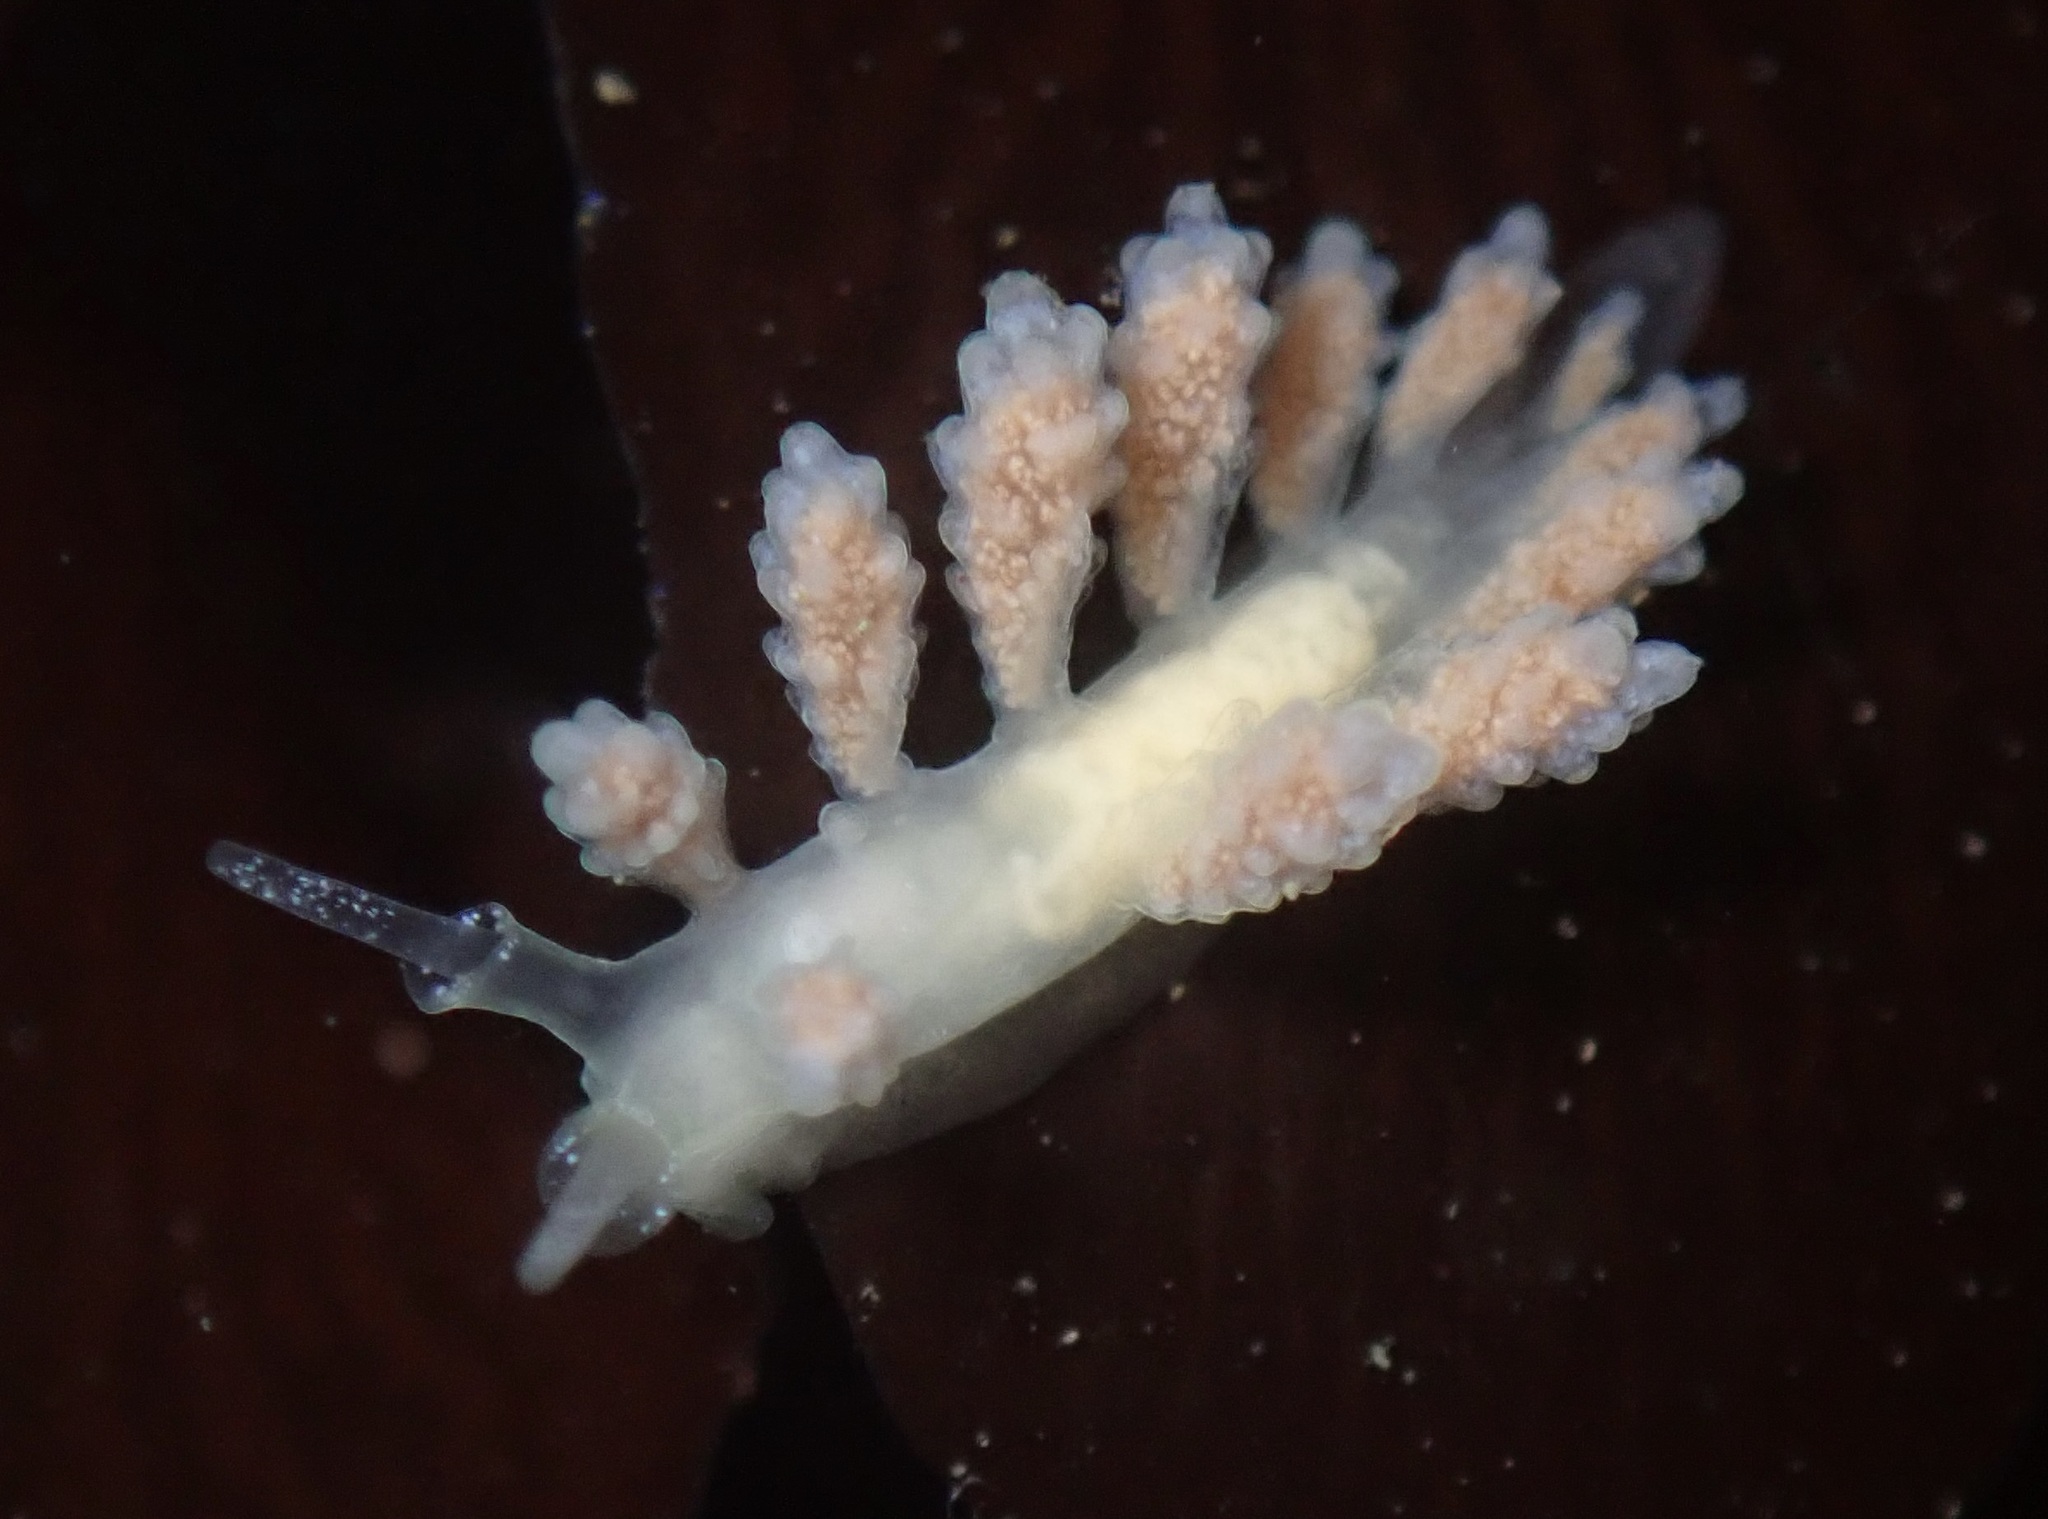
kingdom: Animalia
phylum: Mollusca
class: Gastropoda
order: Nudibranchia
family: Dotidae
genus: Doto
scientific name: Doto amyra
